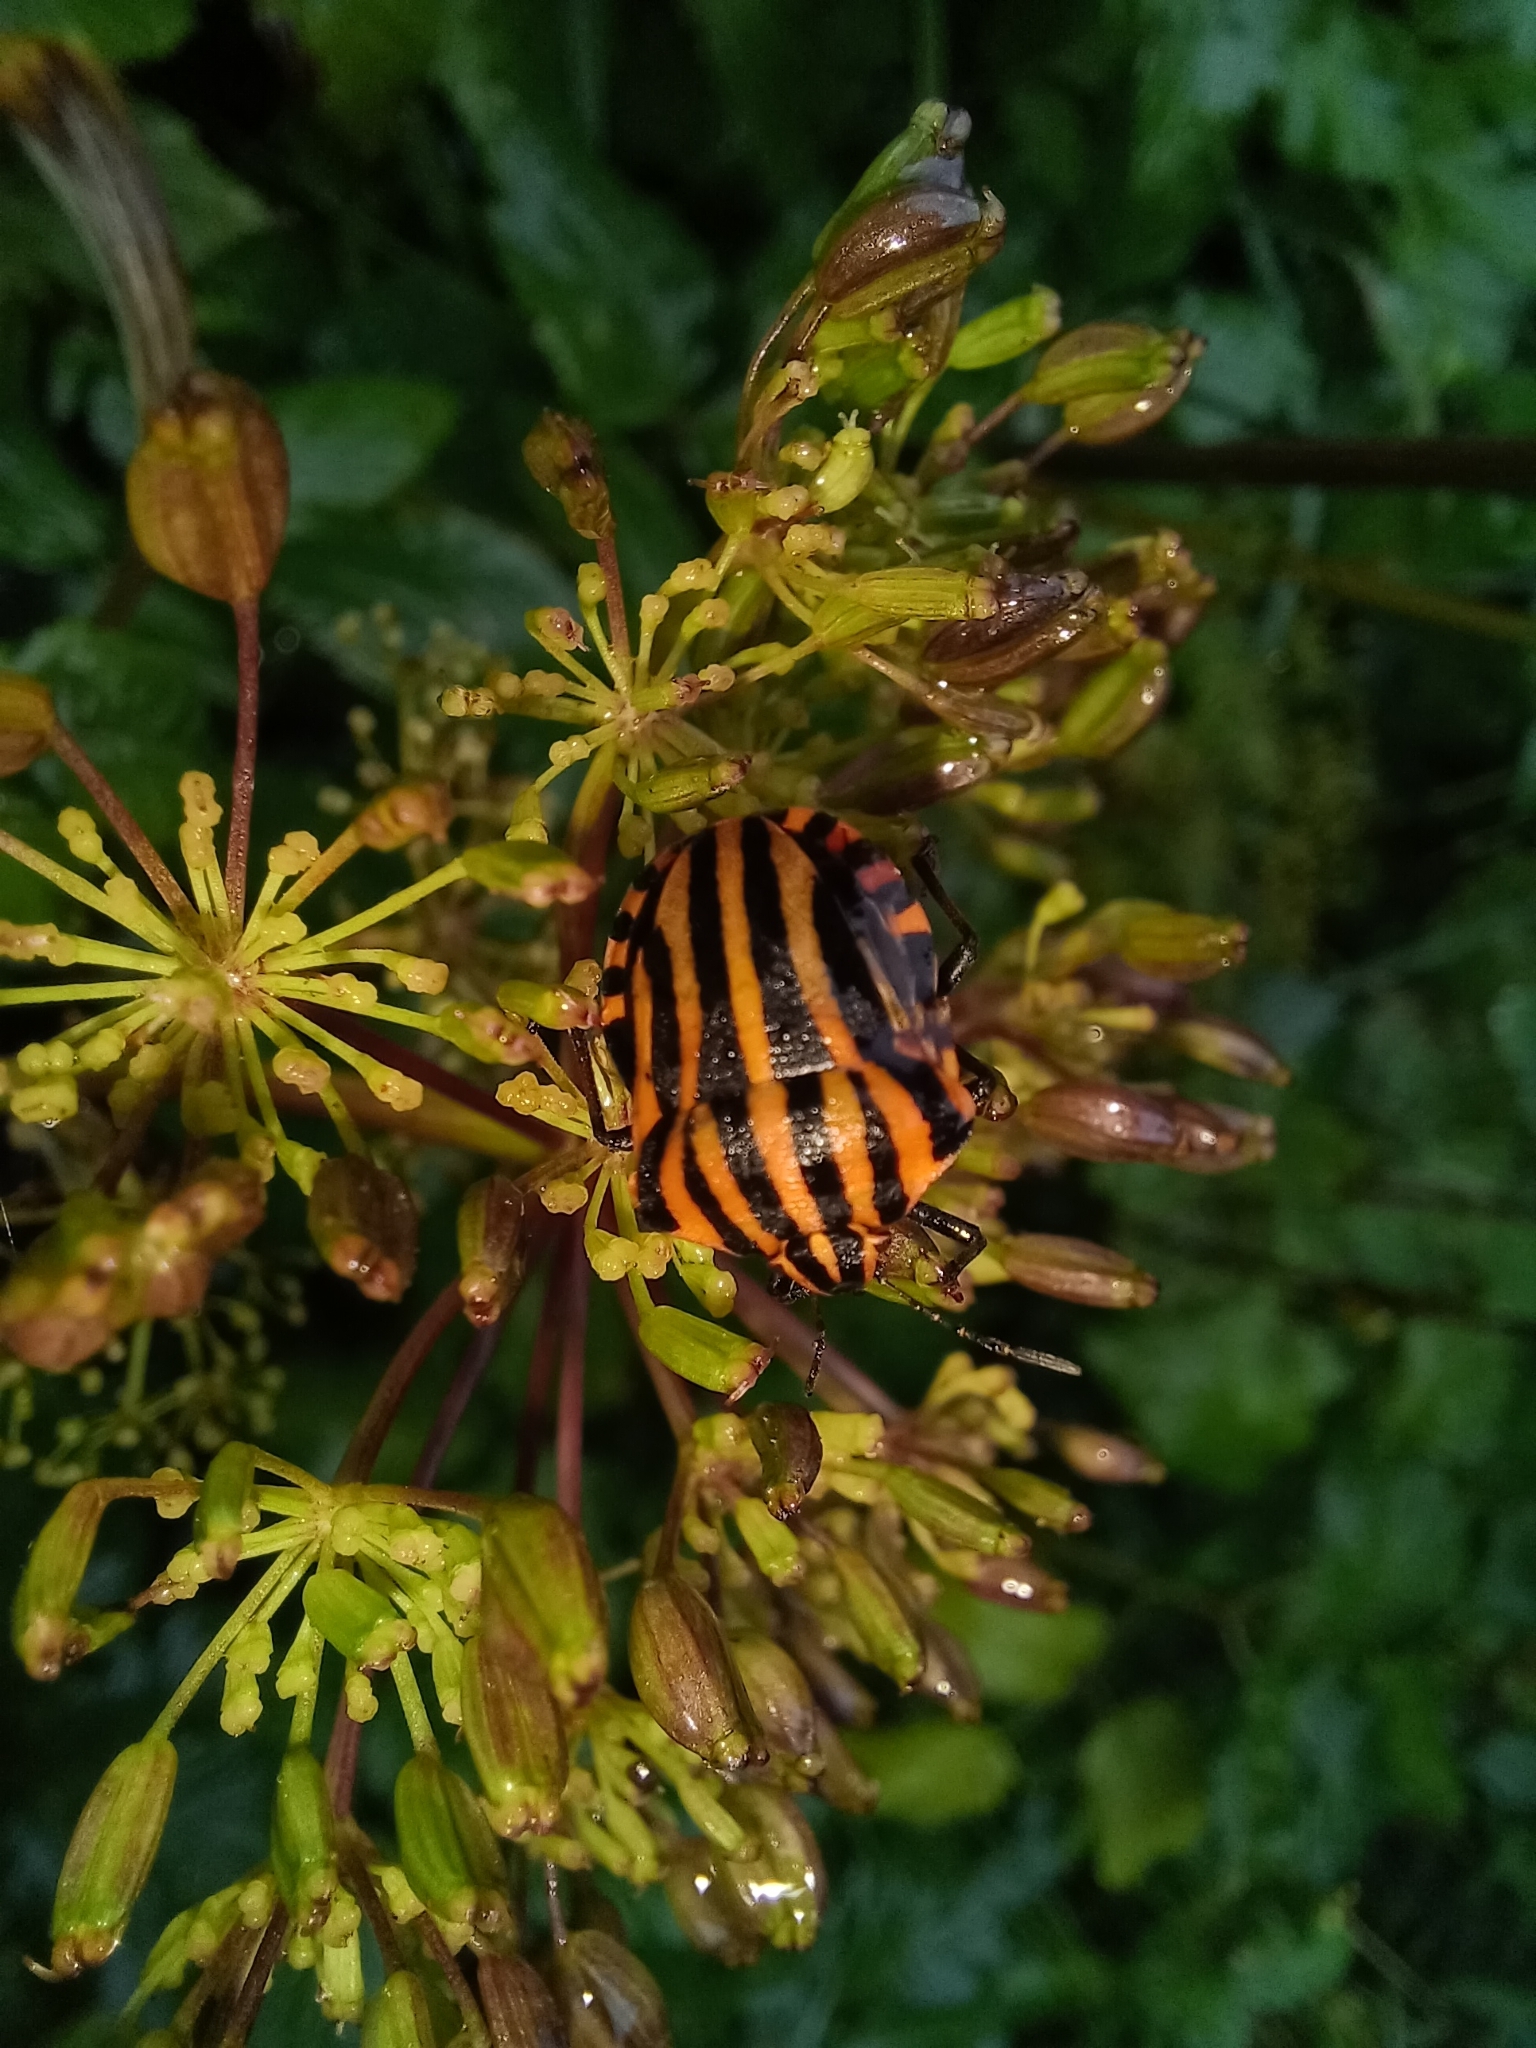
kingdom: Animalia
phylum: Arthropoda
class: Insecta
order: Hemiptera
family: Pentatomidae
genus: Graphosoma
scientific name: Graphosoma italicum
